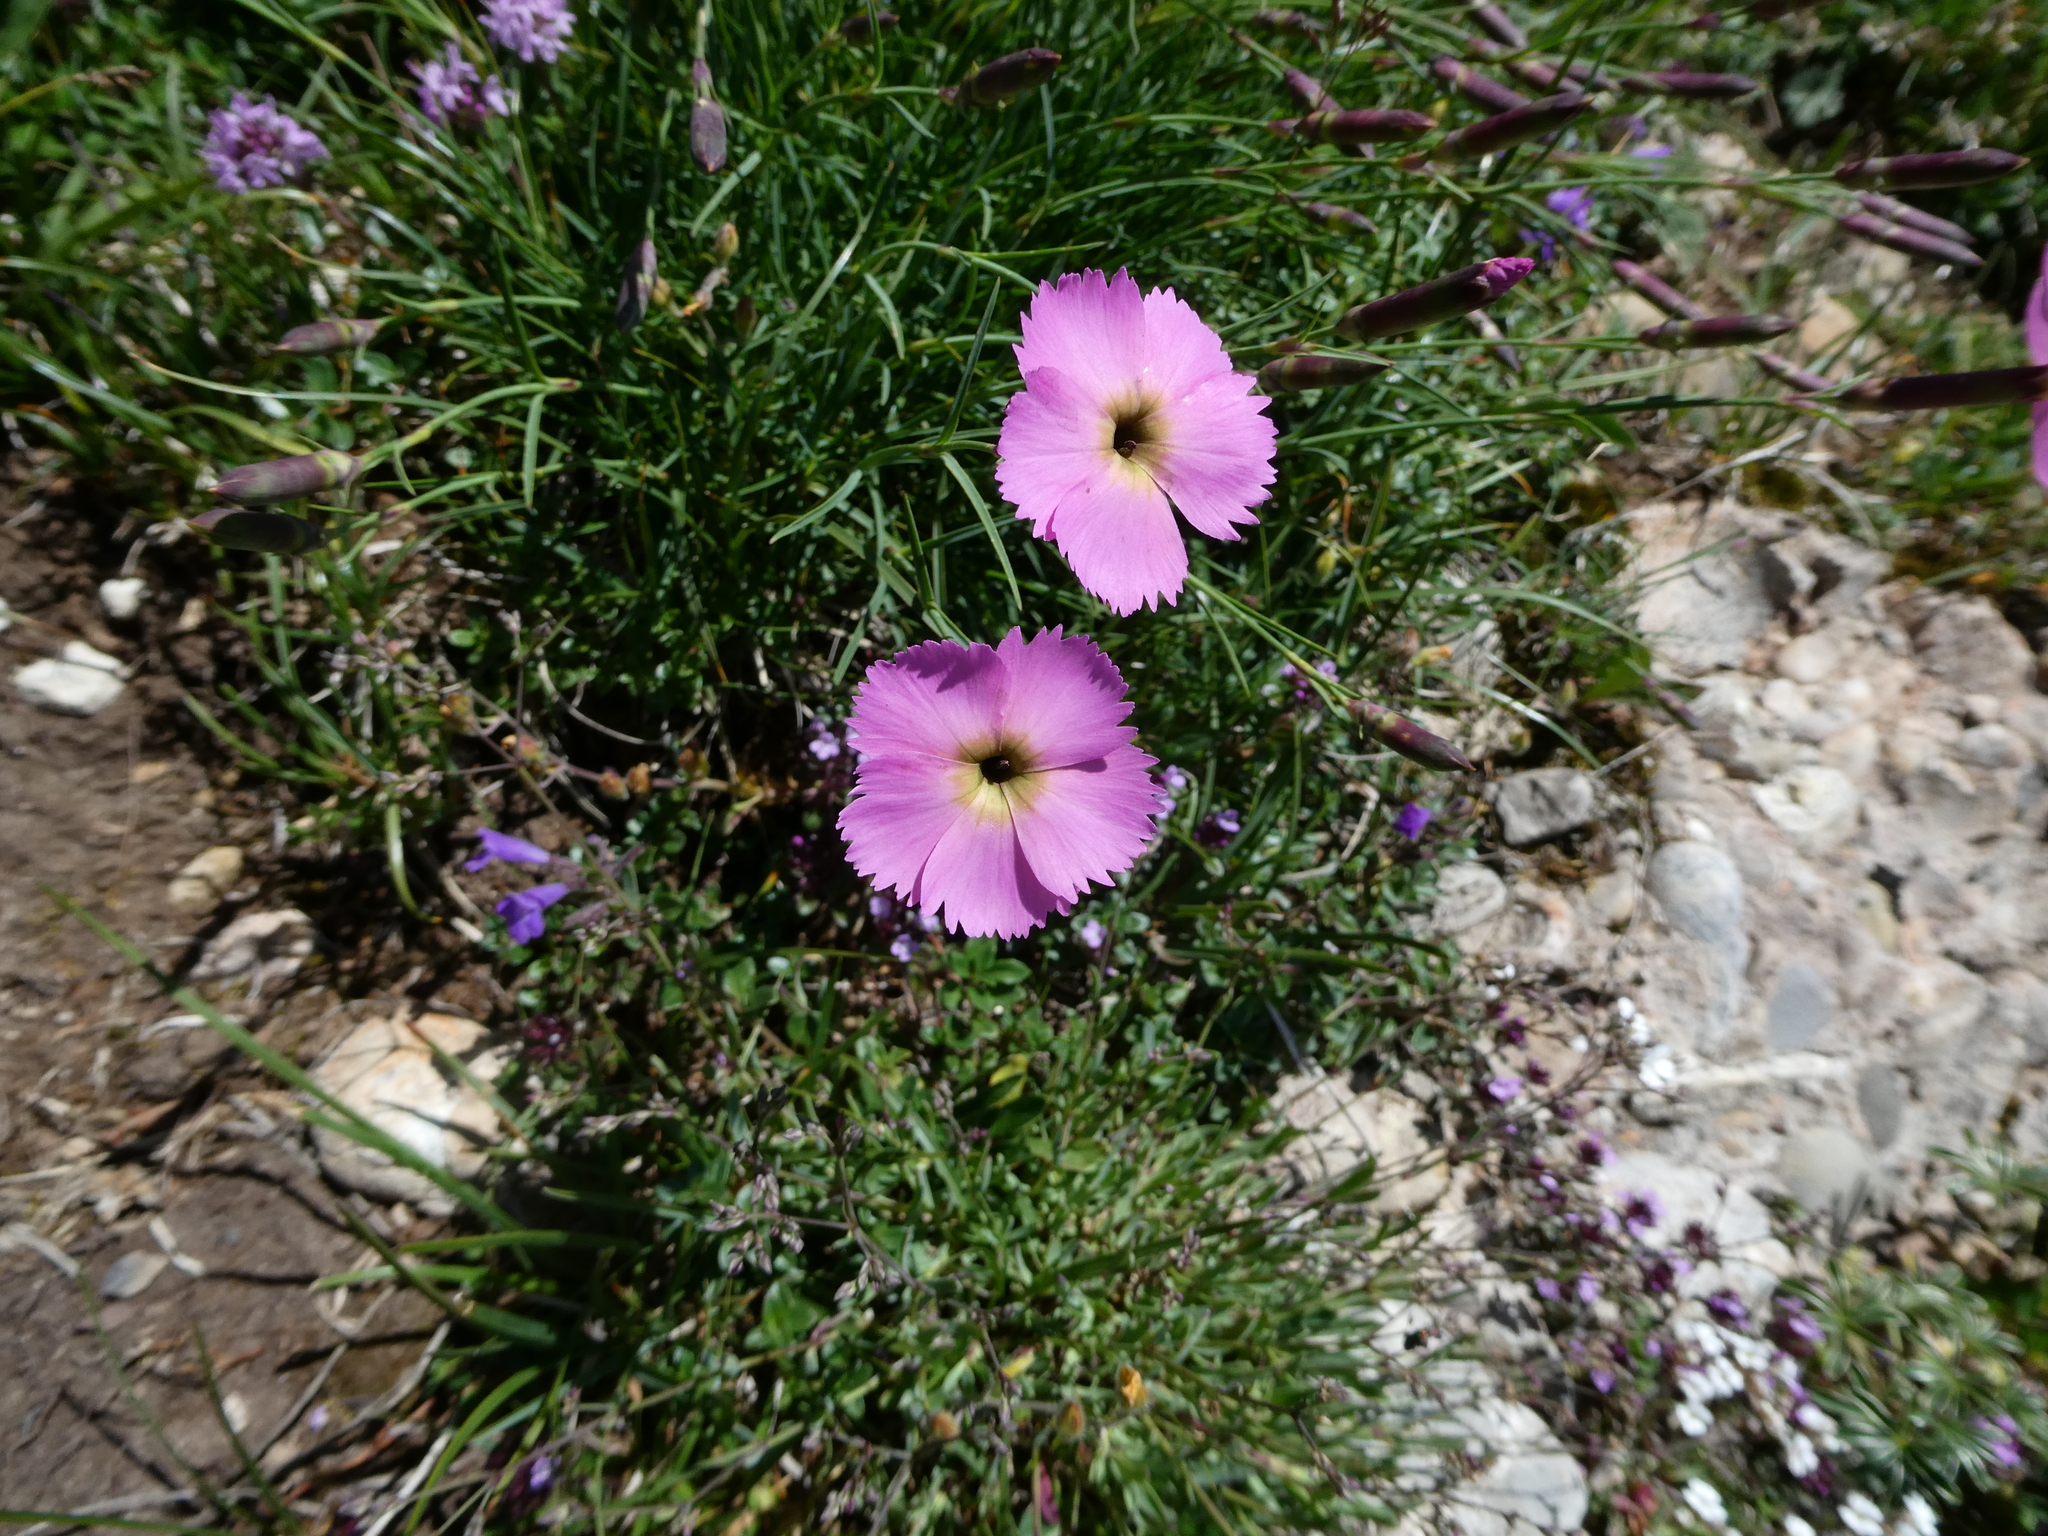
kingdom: Plantae
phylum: Tracheophyta
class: Magnoliopsida
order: Caryophyllales
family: Caryophyllaceae
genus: Dianthus
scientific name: Dianthus sylvestris
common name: Wood pink
